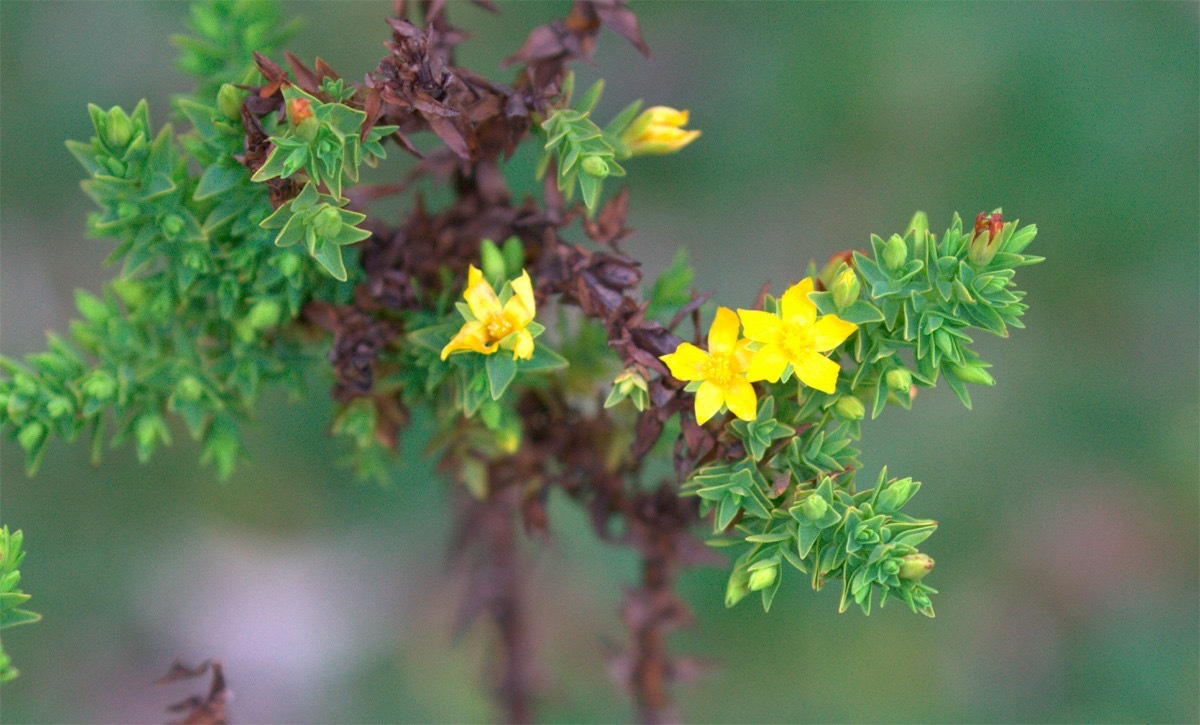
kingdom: Plantae
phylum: Tracheophyta
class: Magnoliopsida
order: Malpighiales
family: Hypericaceae
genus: Hypericum
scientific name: Hypericum quitense
